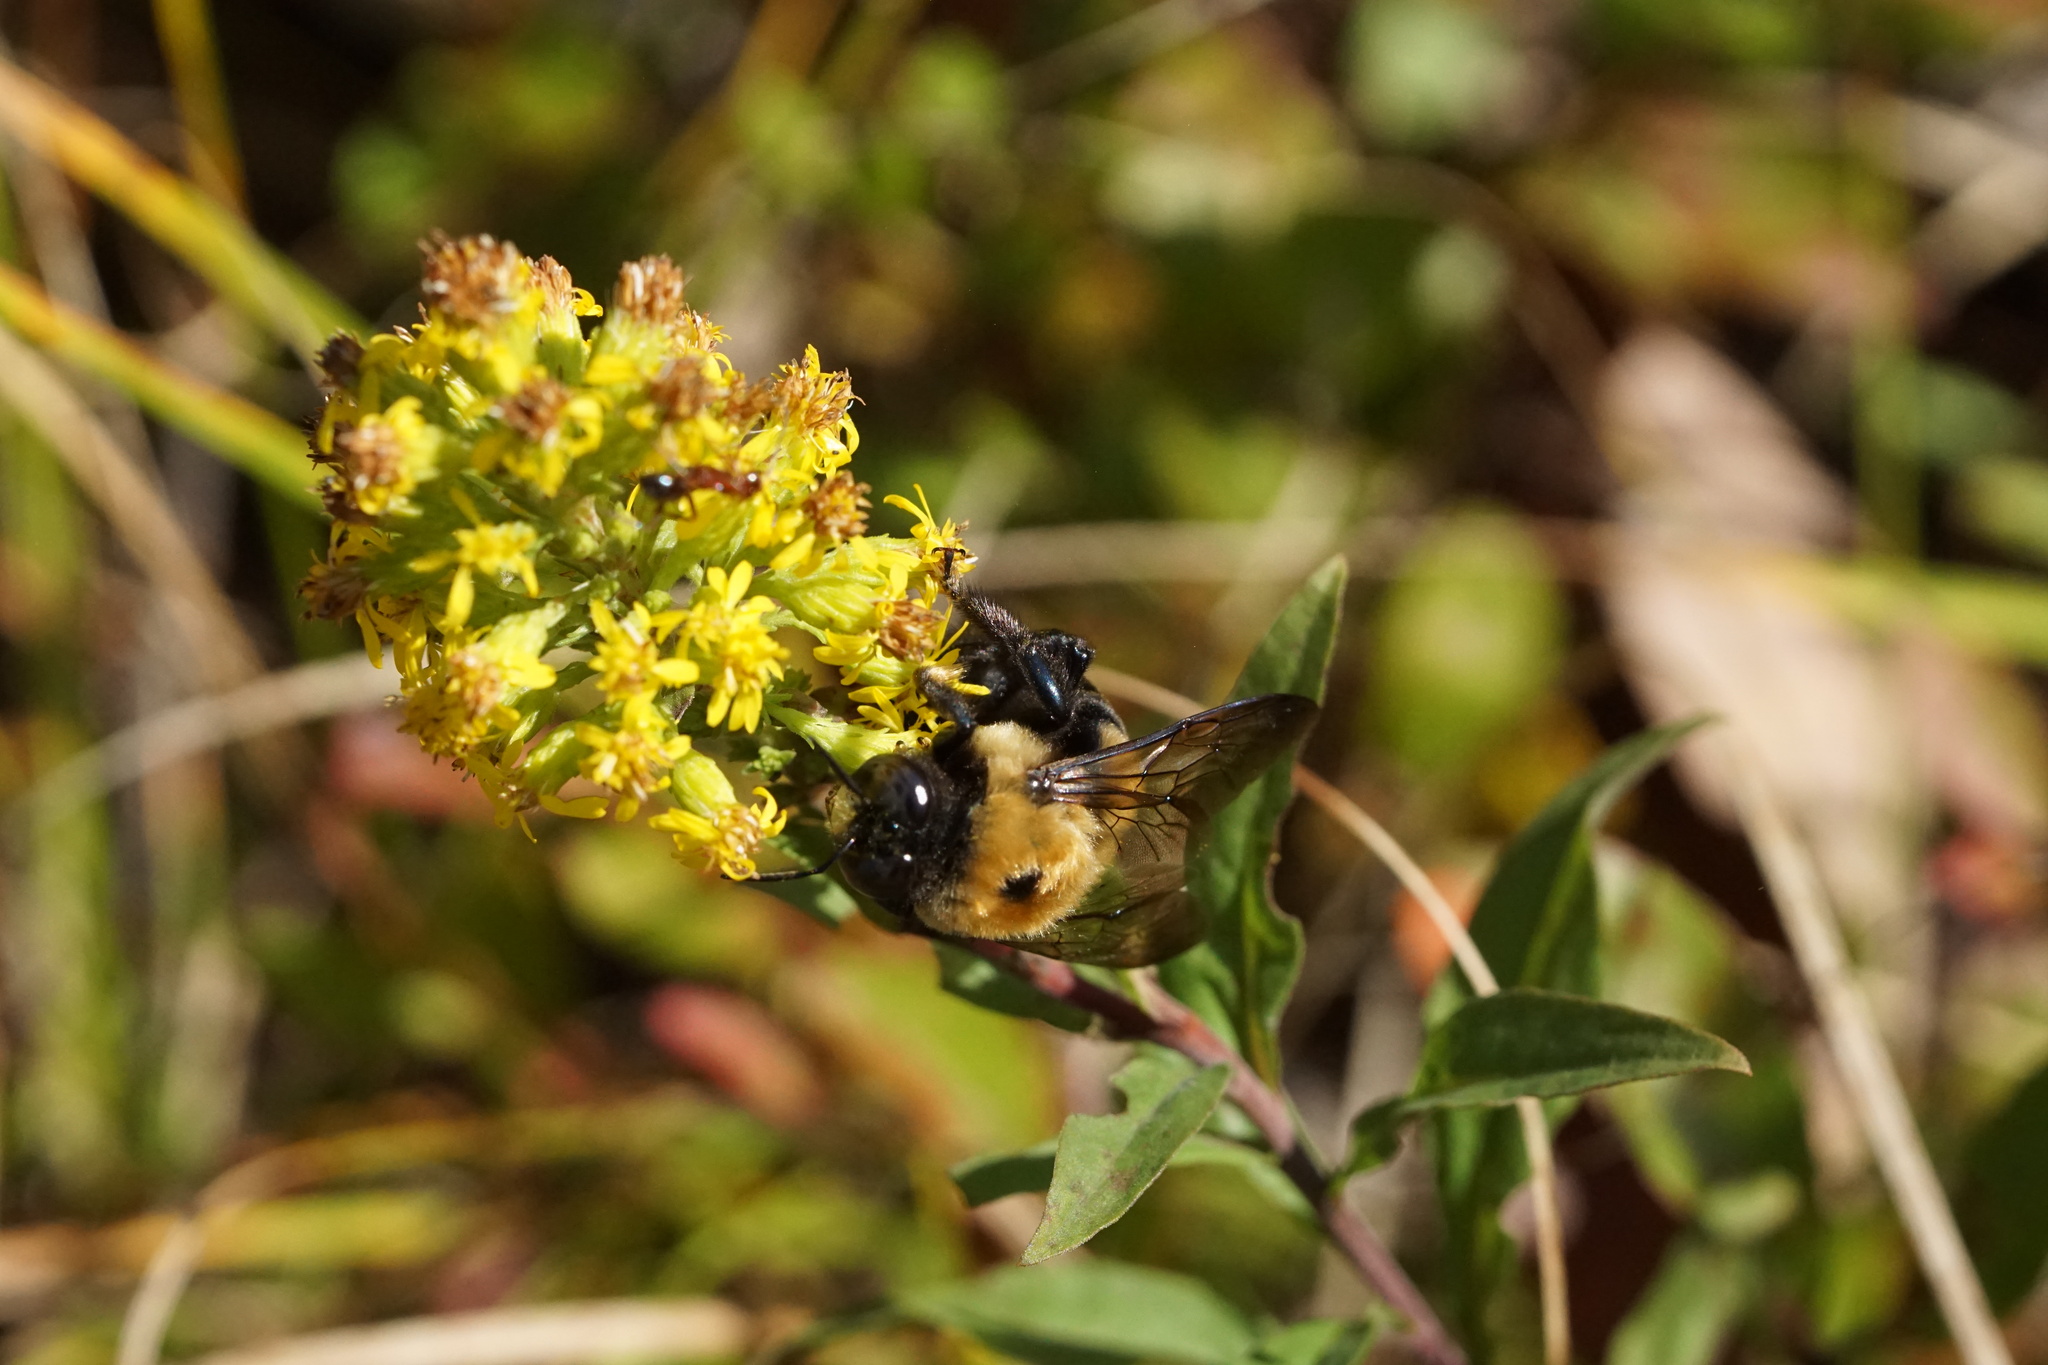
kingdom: Animalia
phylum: Arthropoda
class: Insecta
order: Hymenoptera
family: Apidae
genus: Xylocopa
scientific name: Xylocopa virginica
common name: Carpenter bee
